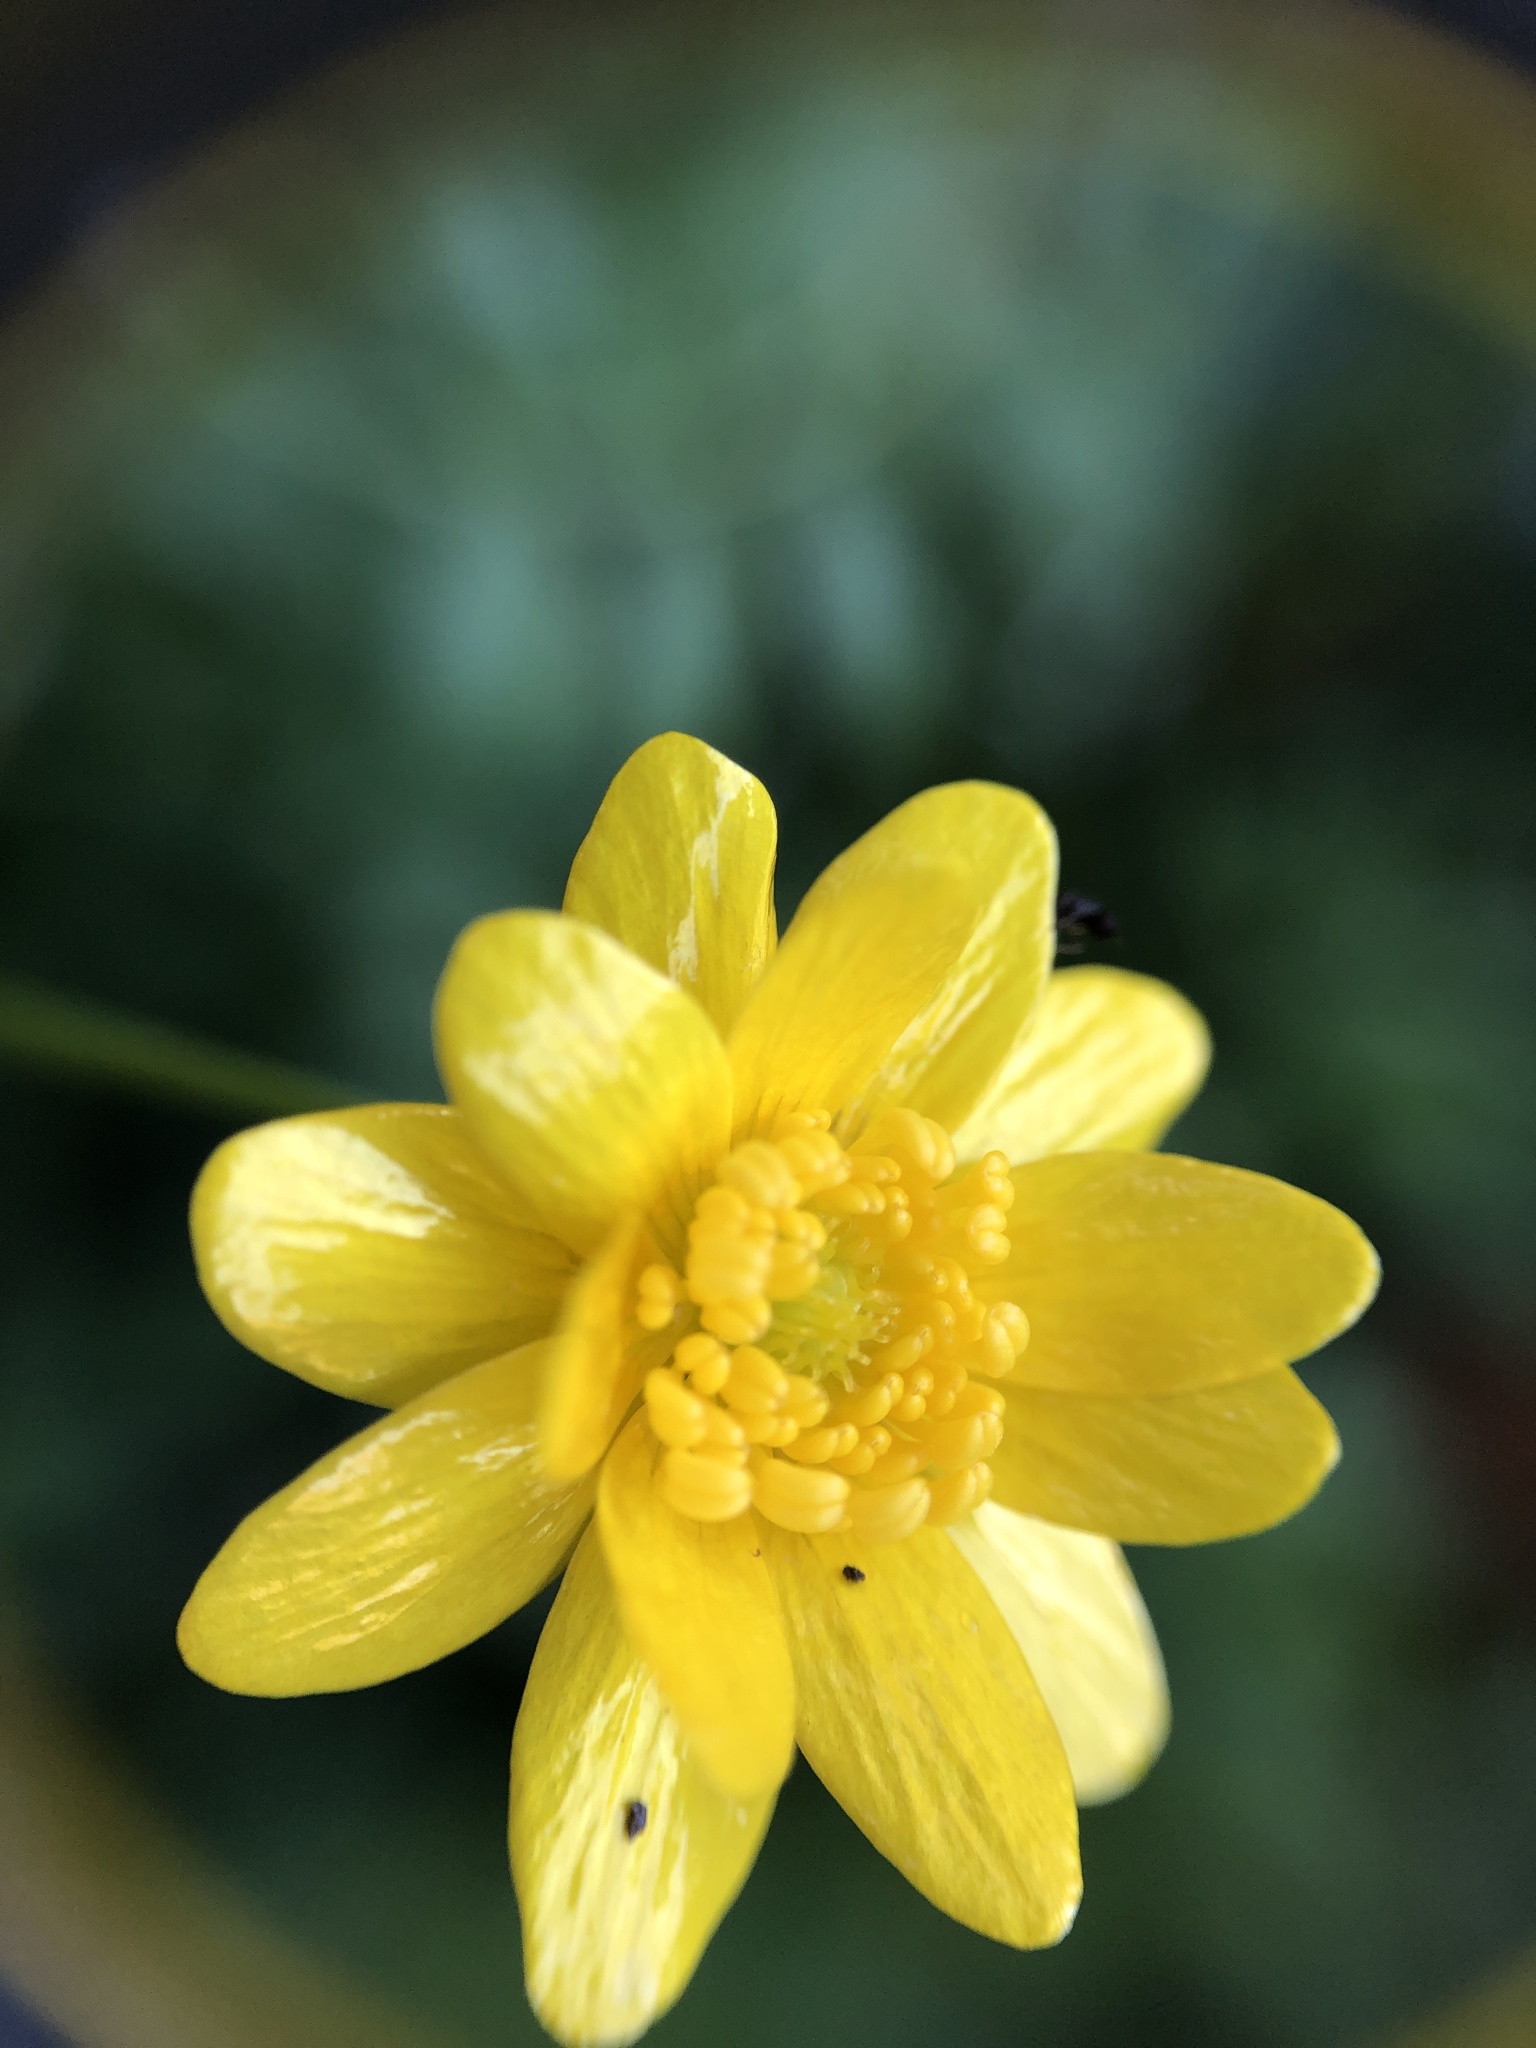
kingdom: Plantae
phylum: Tracheophyta
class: Magnoliopsida
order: Ranunculales
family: Ranunculaceae
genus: Ranunculus
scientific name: Ranunculus californicus
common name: California buttercup
